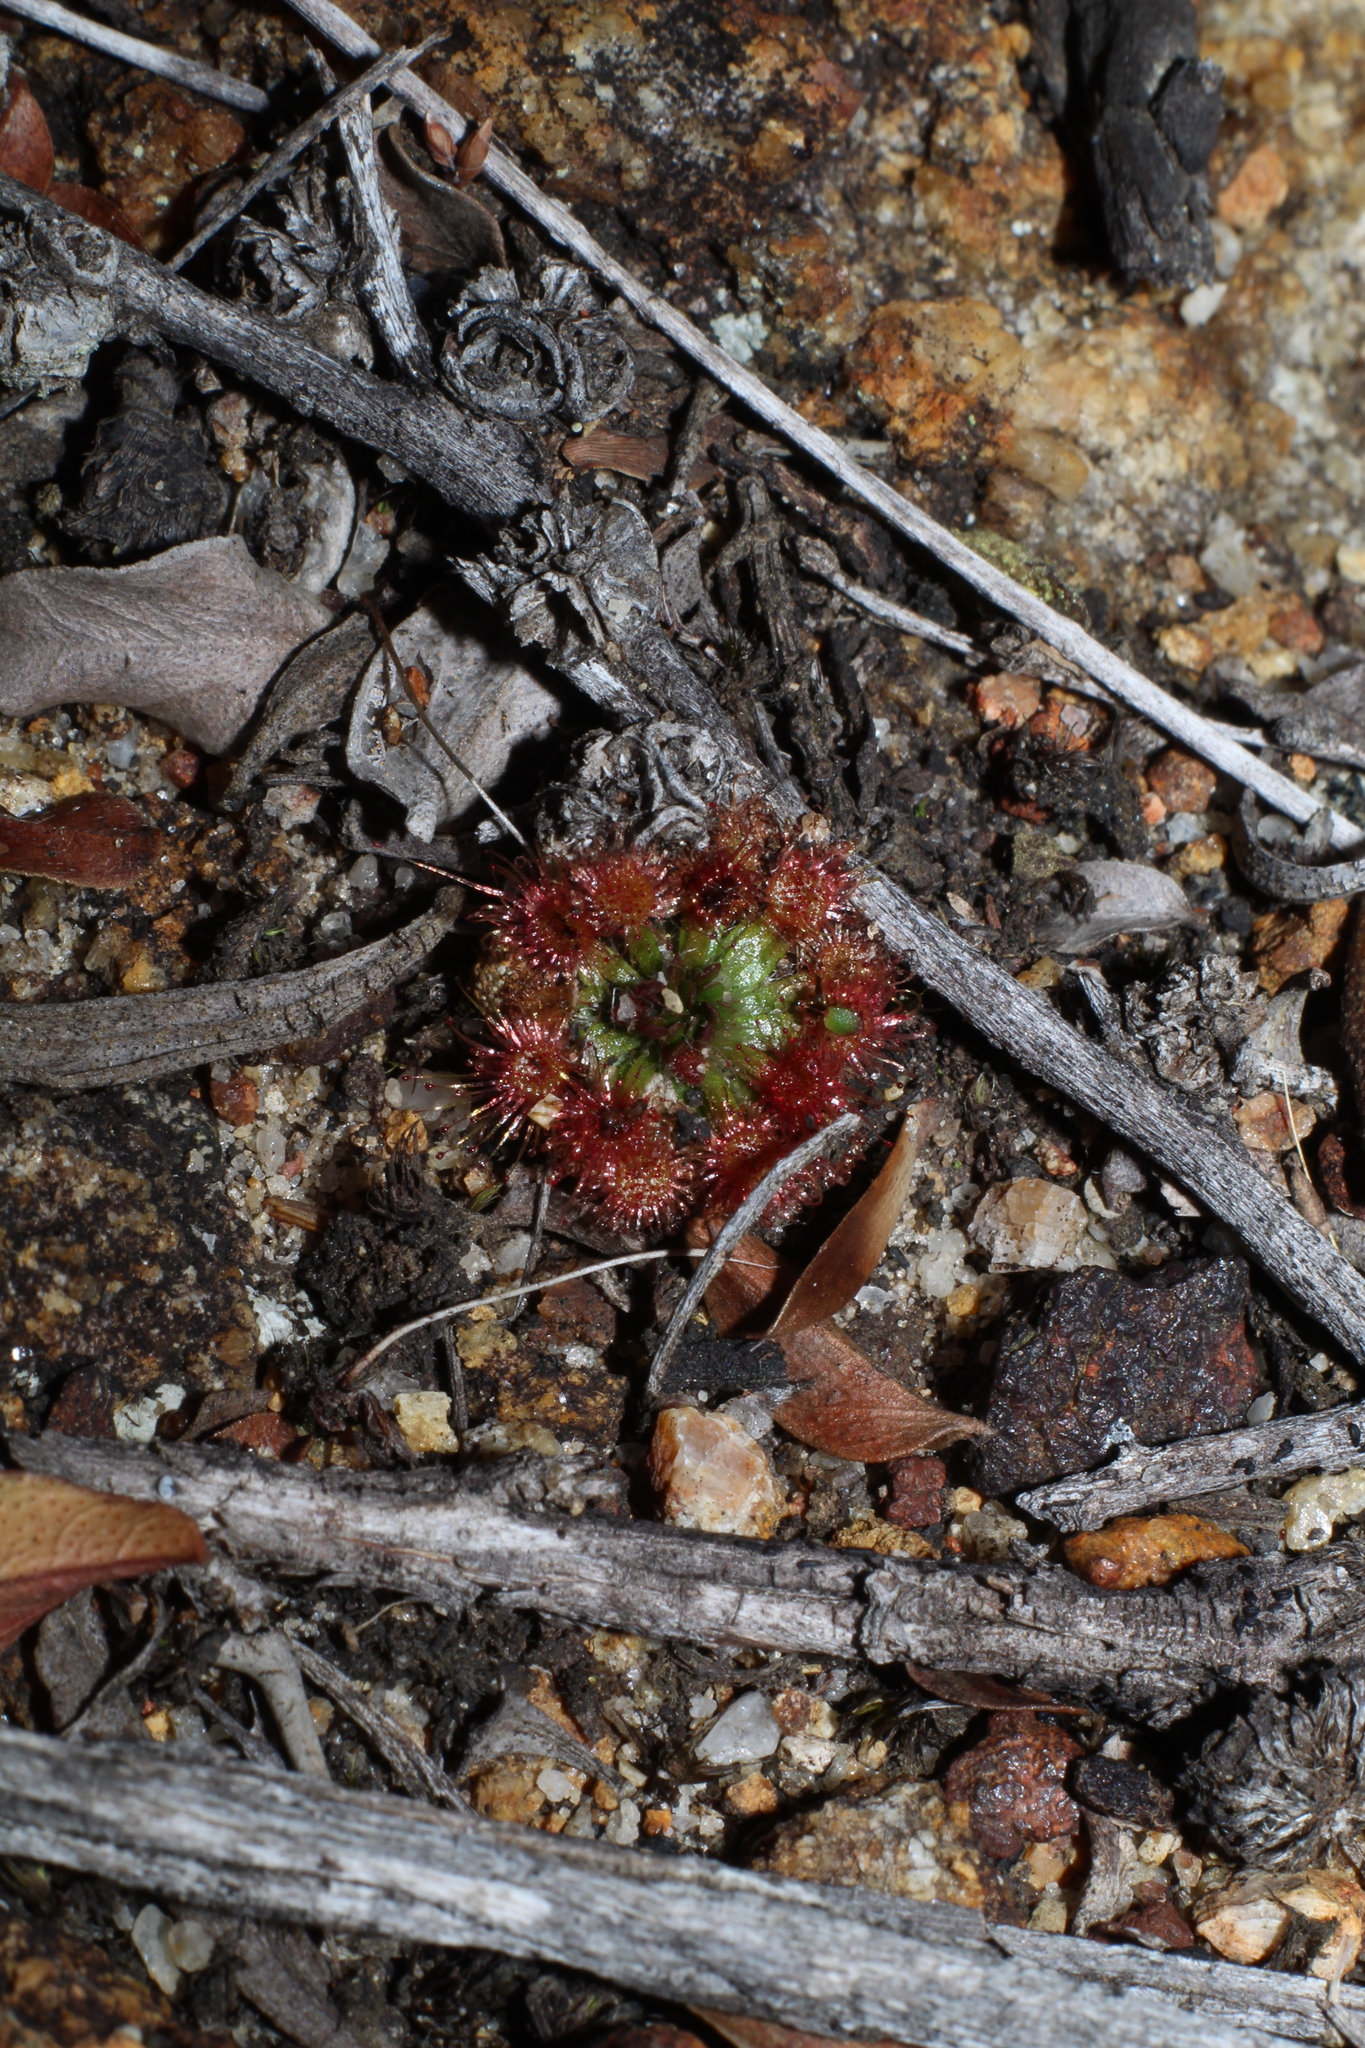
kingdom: Plantae
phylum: Tracheophyta
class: Magnoliopsida
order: Caryophyllales
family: Droseraceae
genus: Drosera
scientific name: Drosera platystigma
